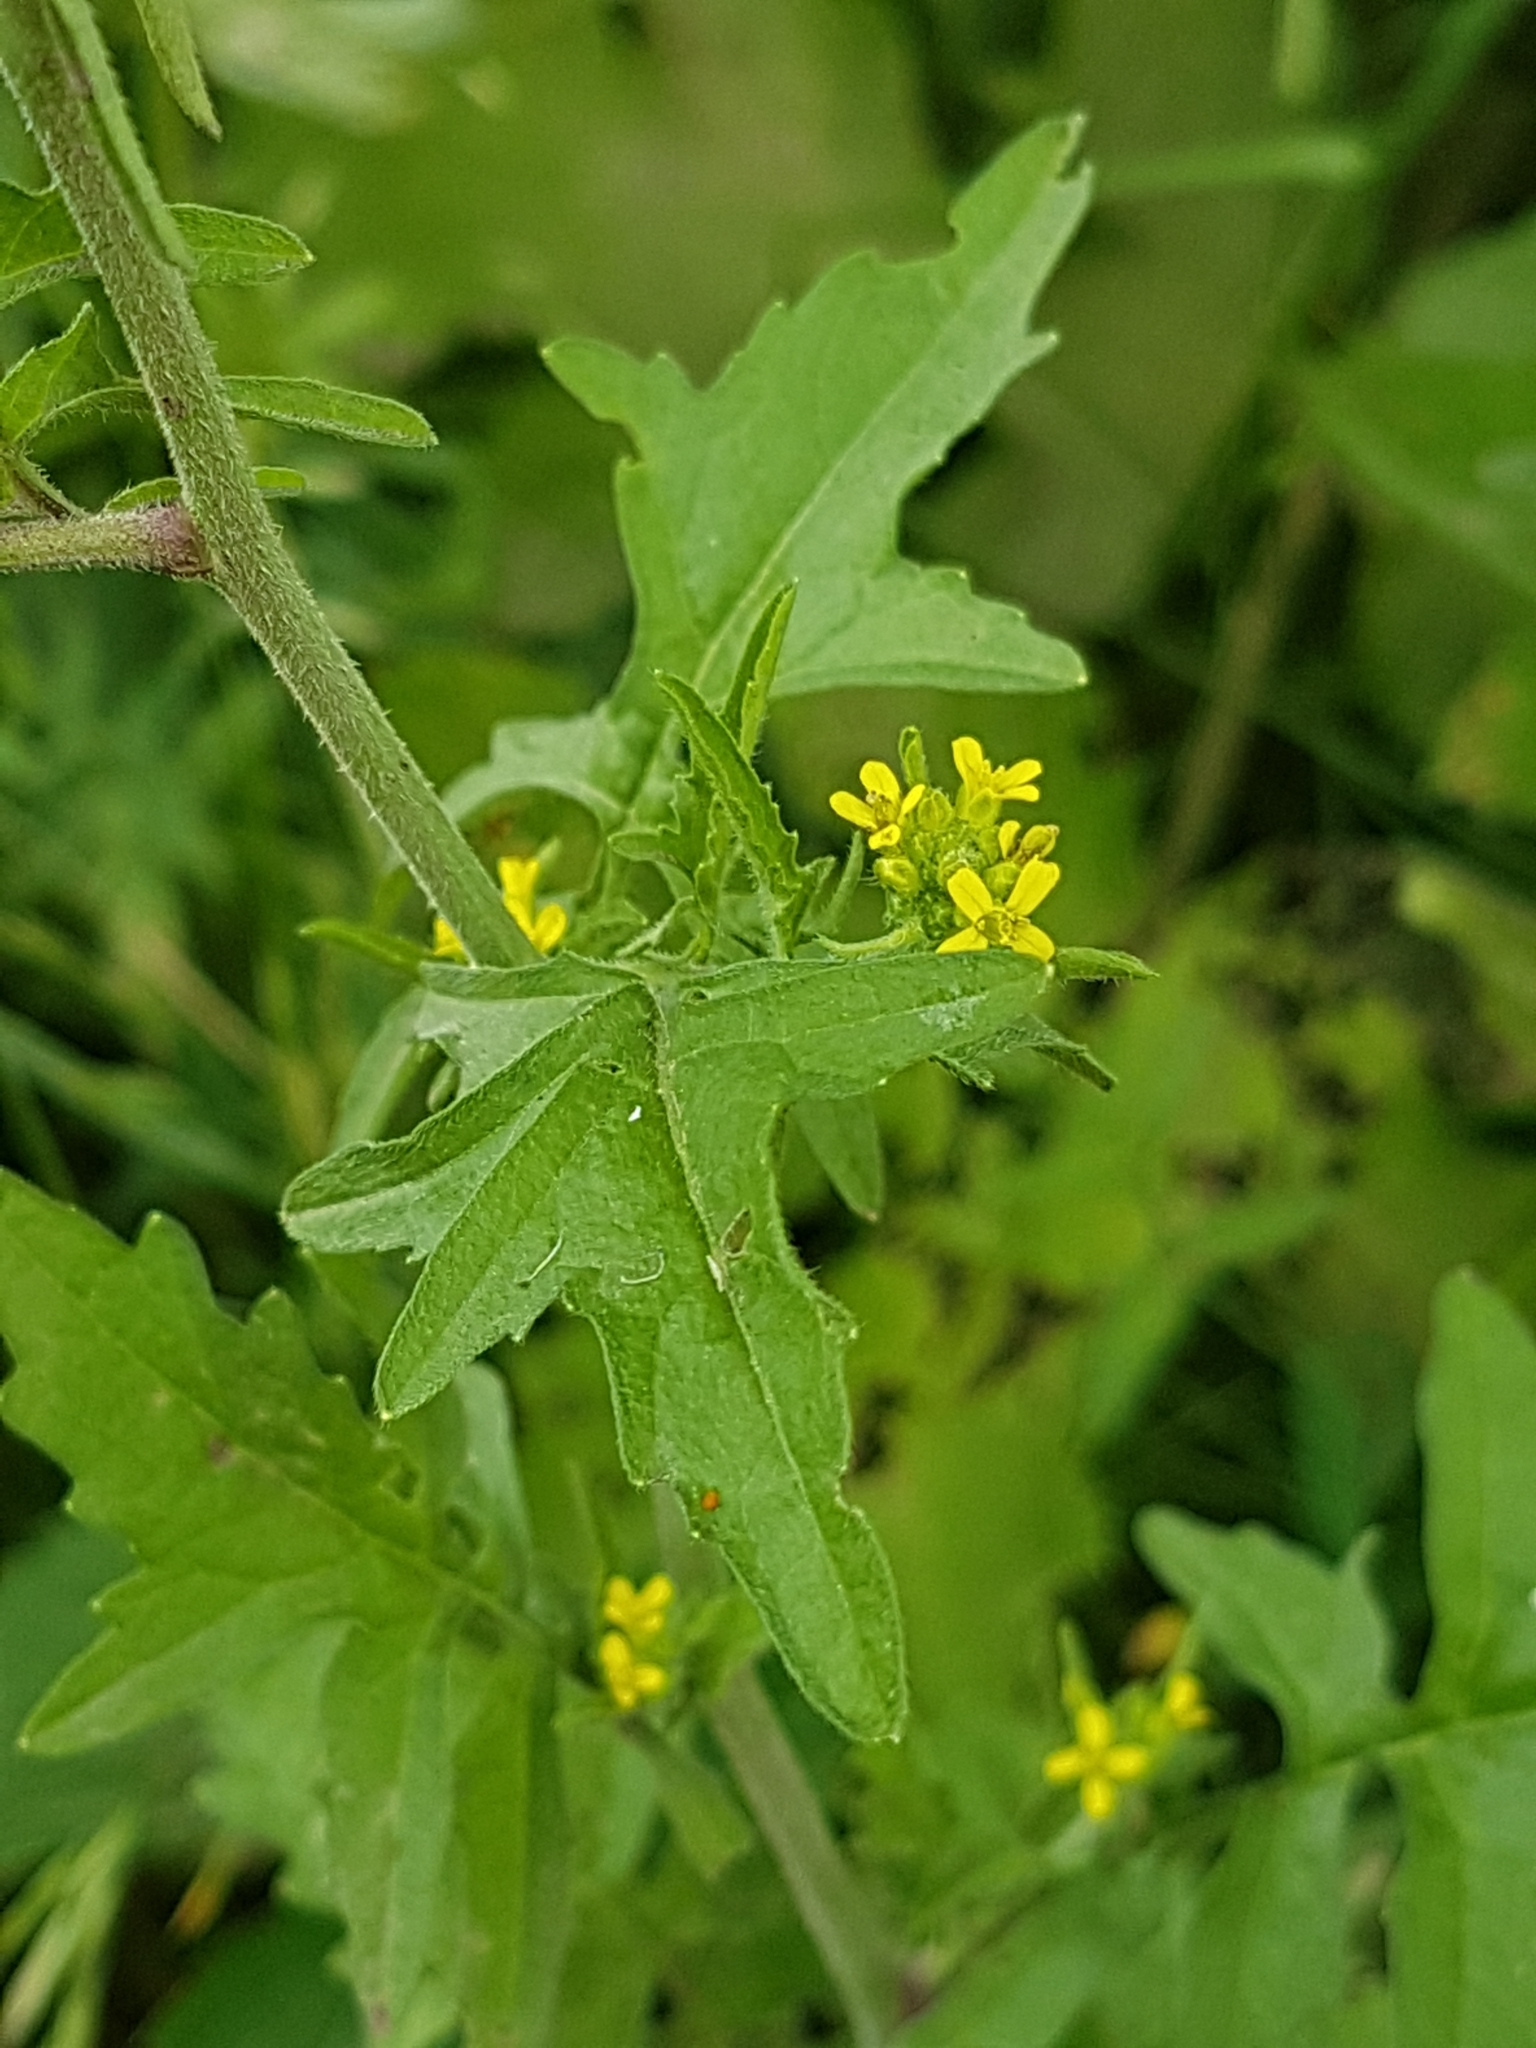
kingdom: Plantae
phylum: Tracheophyta
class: Magnoliopsida
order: Brassicales
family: Brassicaceae
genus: Sisymbrium
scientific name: Sisymbrium officinale
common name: Hedge mustard
